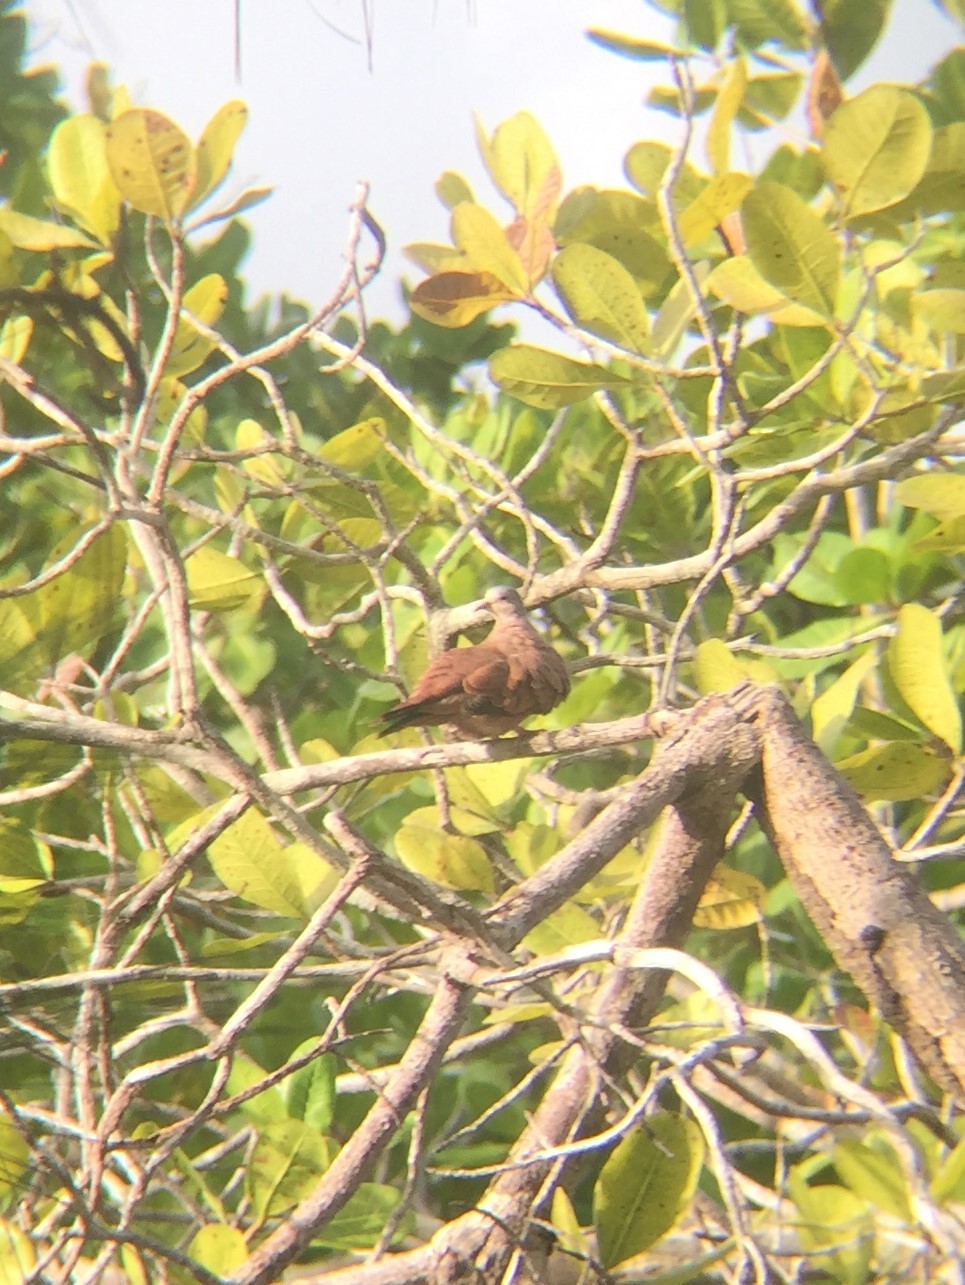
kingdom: Animalia
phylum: Chordata
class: Aves
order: Columbiformes
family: Columbidae
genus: Columbina
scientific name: Columbina talpacoti
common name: Ruddy ground dove
